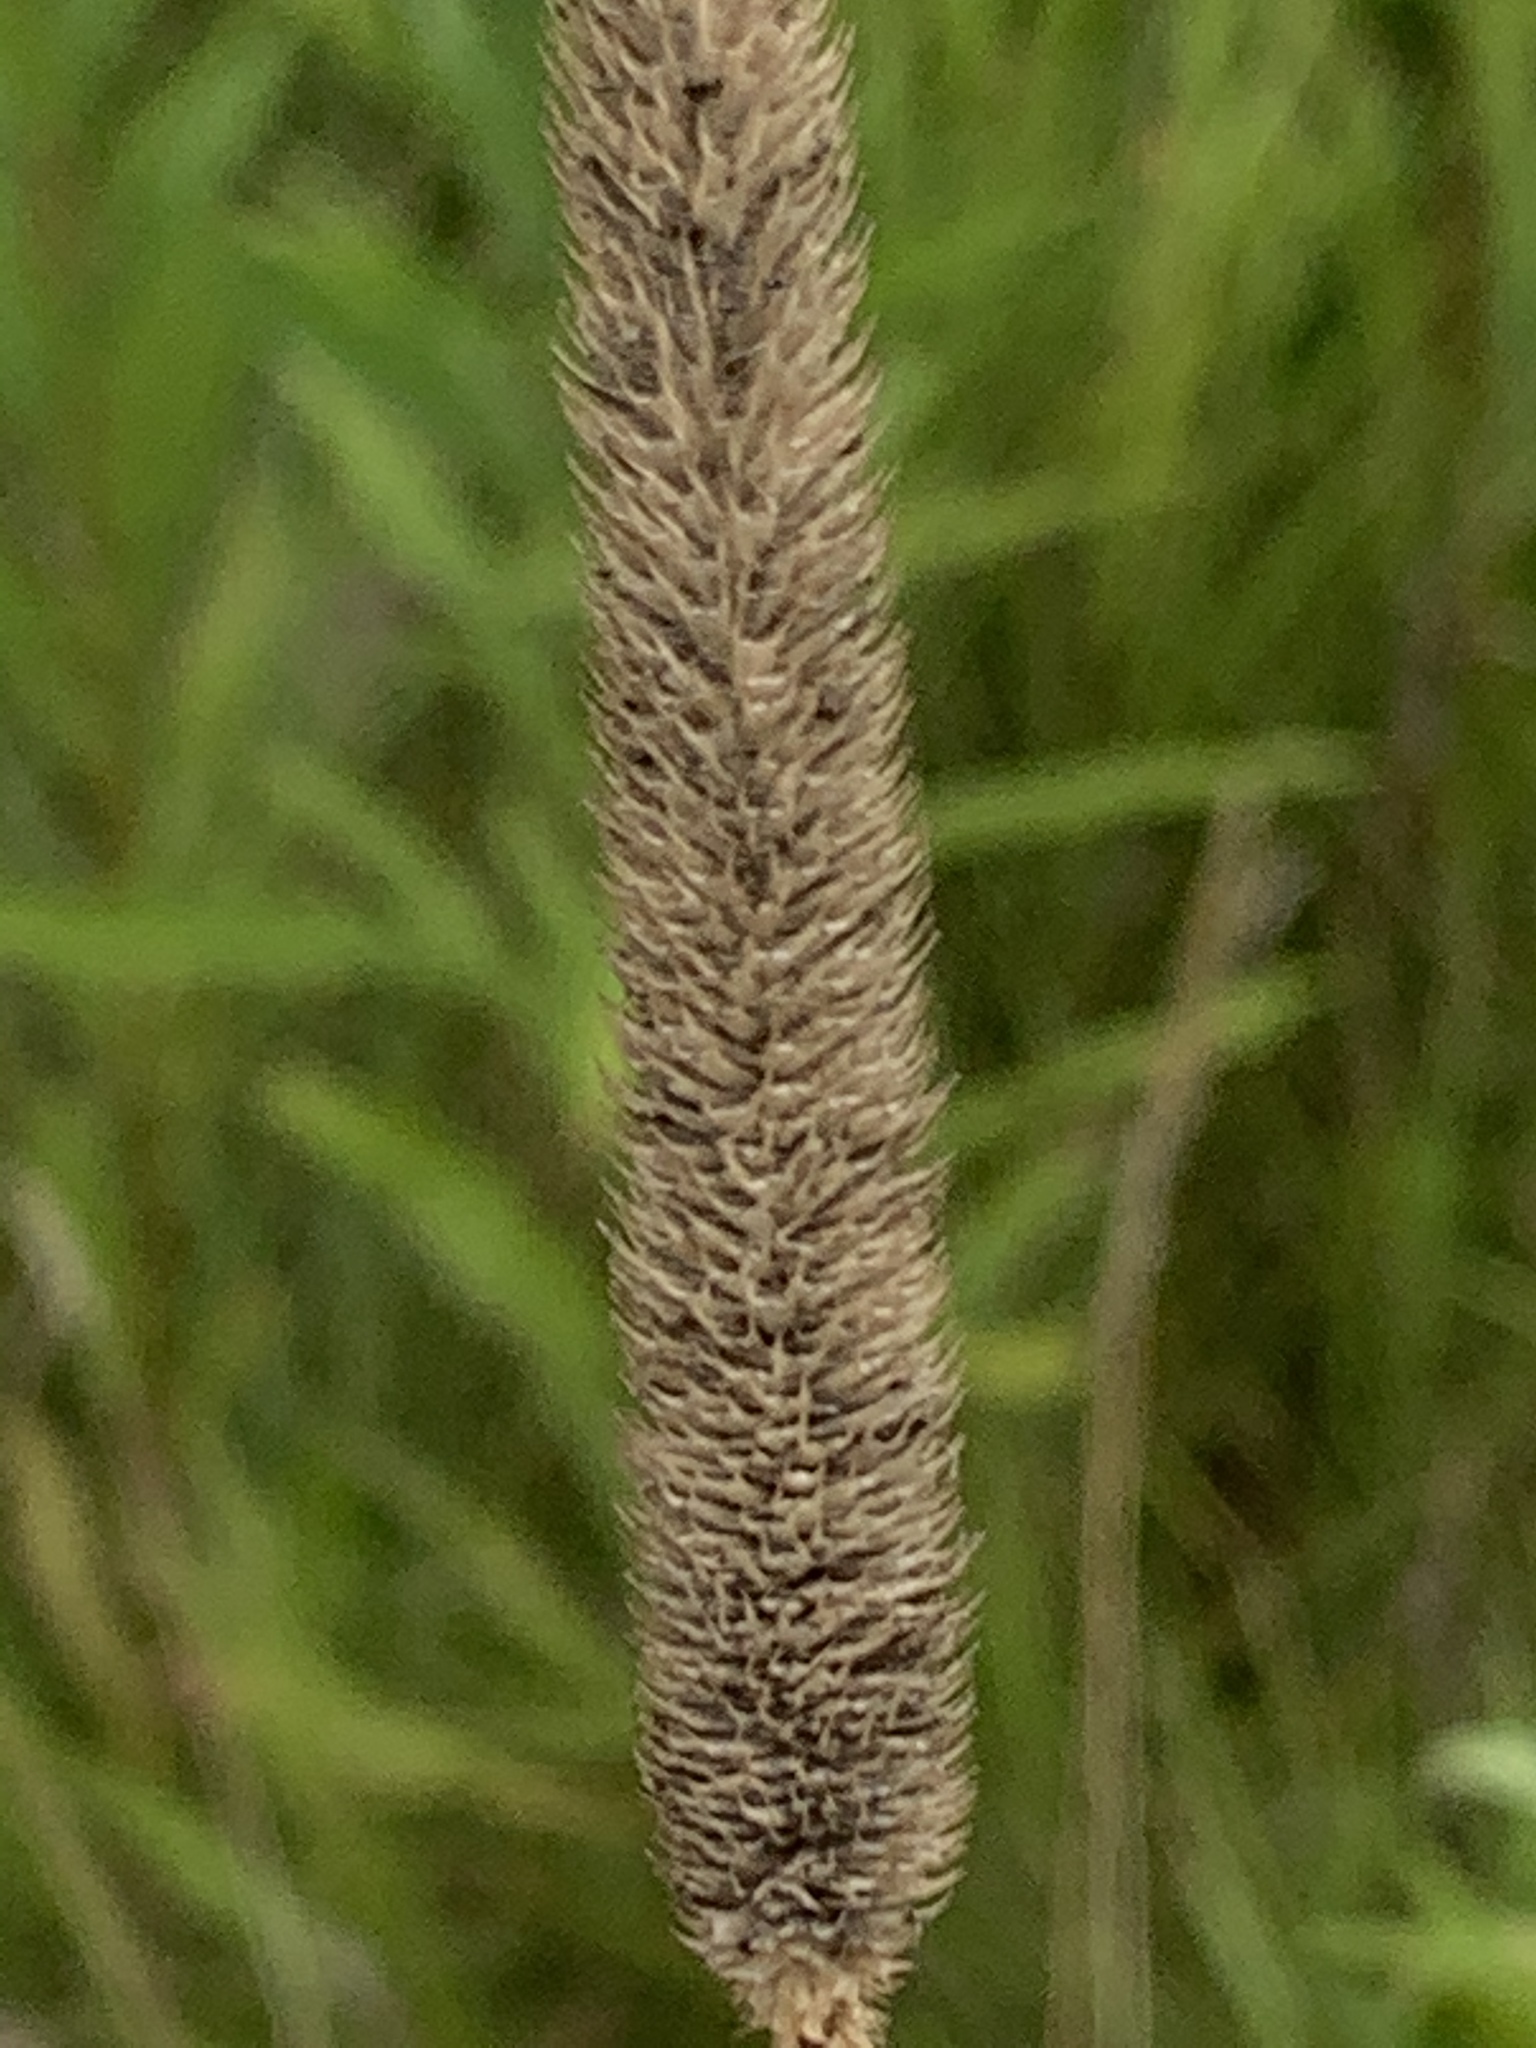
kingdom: Plantae
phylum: Tracheophyta
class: Liliopsida
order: Poales
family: Poaceae
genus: Phleum
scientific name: Phleum pratense
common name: Timothy grass
